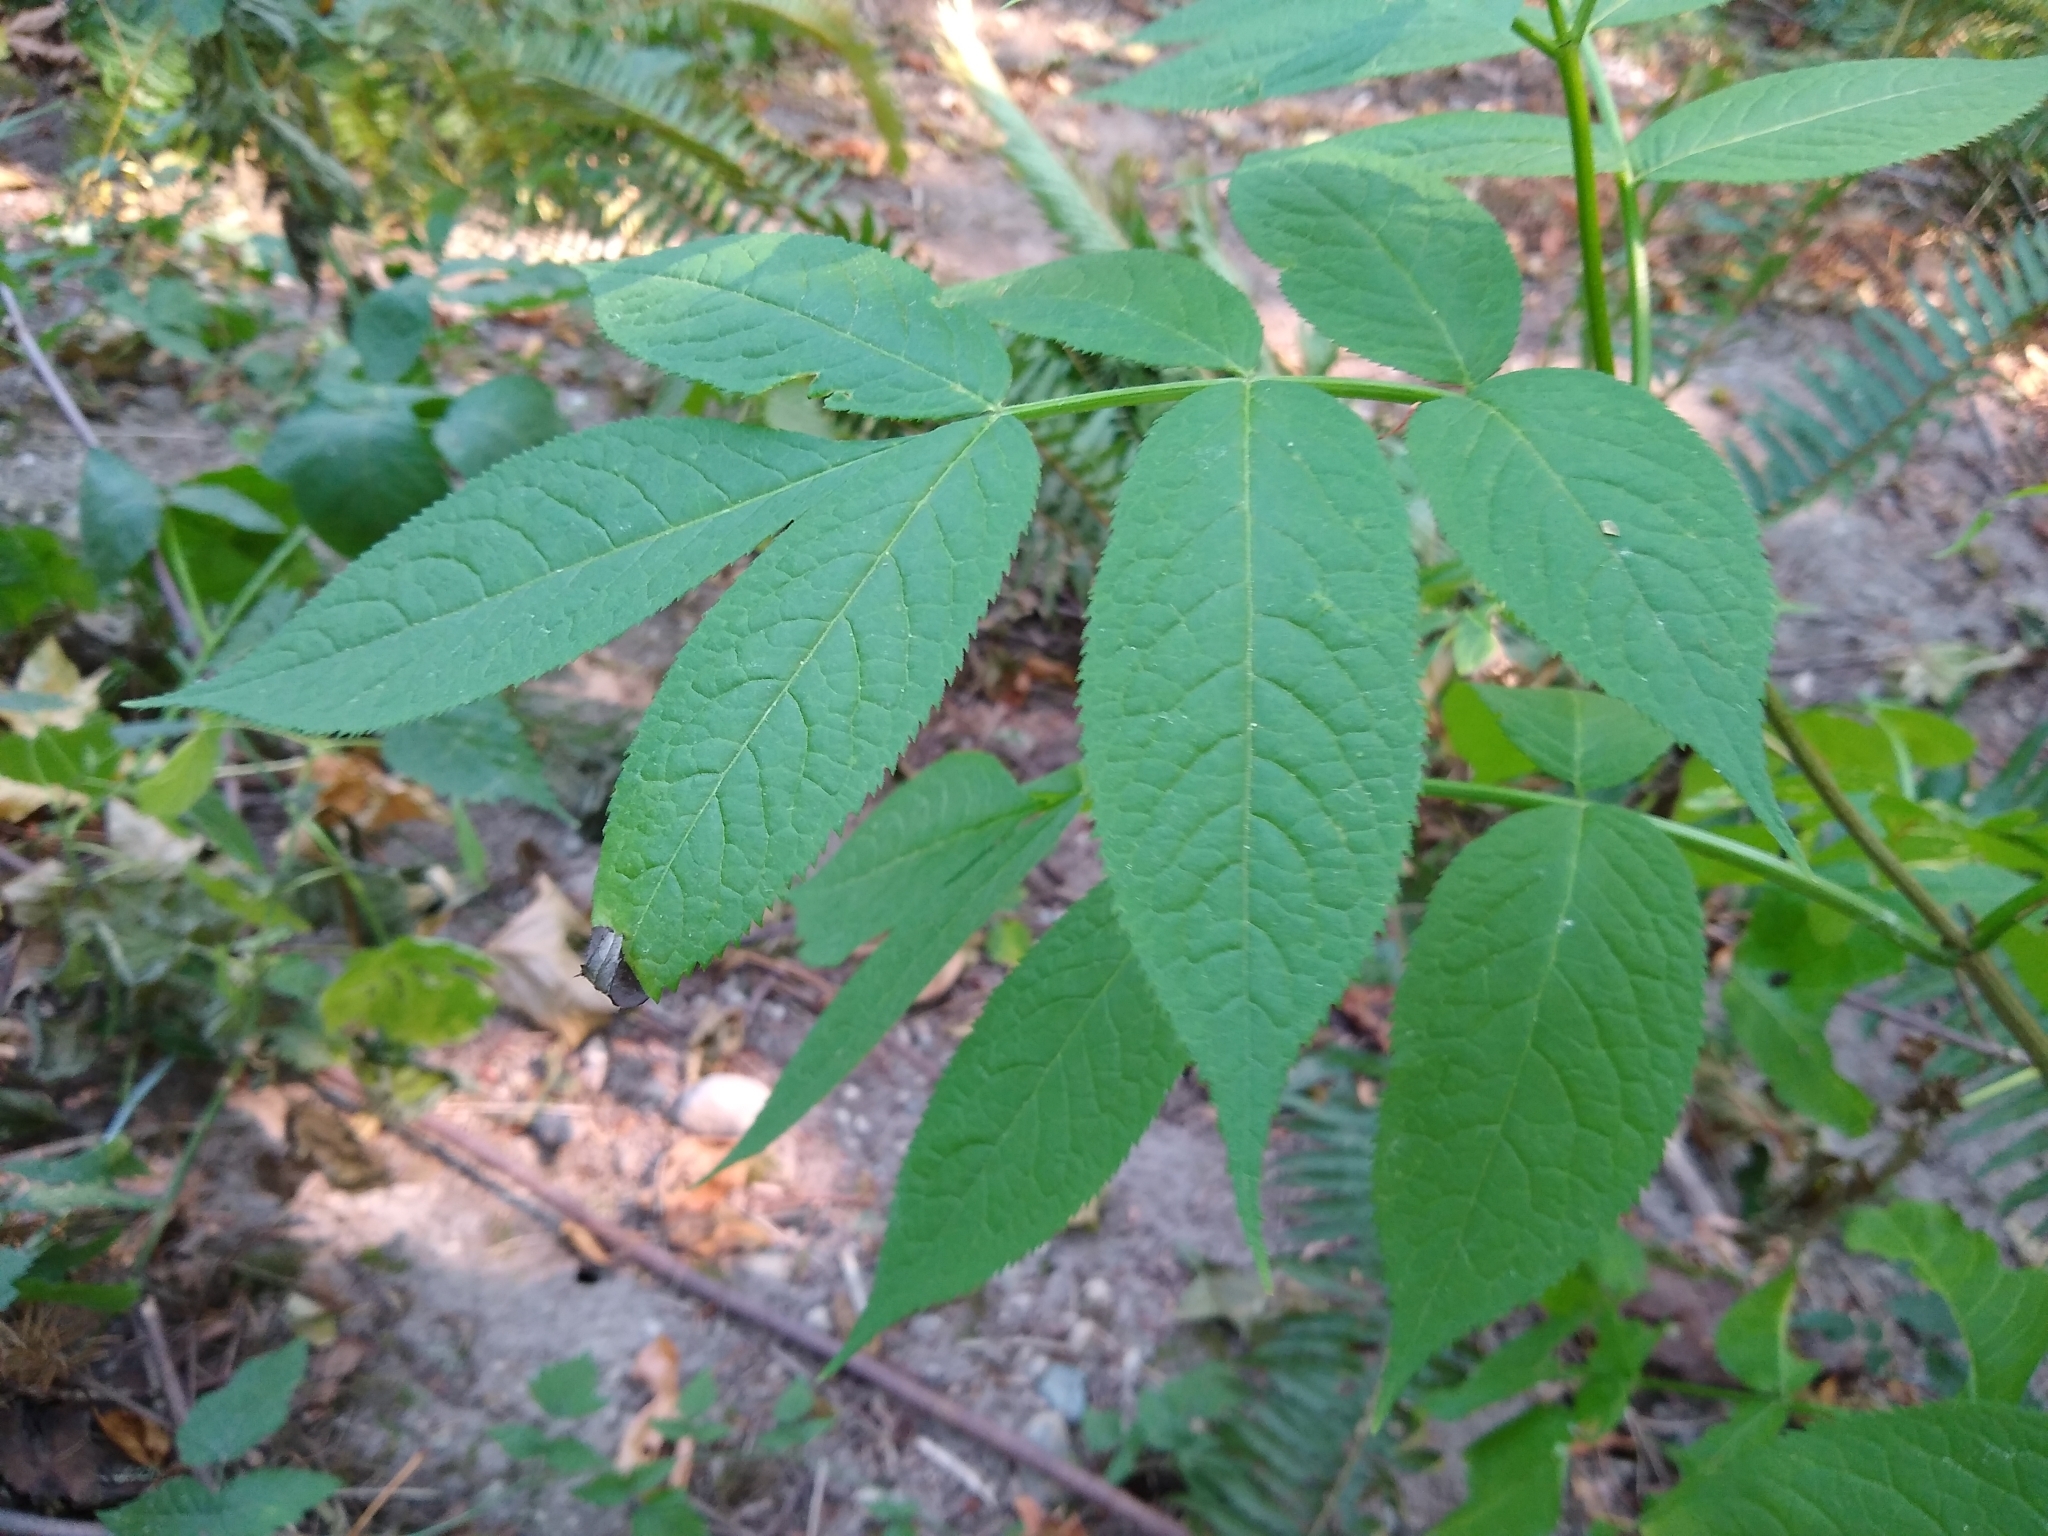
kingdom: Plantae
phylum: Tracheophyta
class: Magnoliopsida
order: Dipsacales
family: Viburnaceae
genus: Sambucus
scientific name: Sambucus racemosa
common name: Red-berried elder
